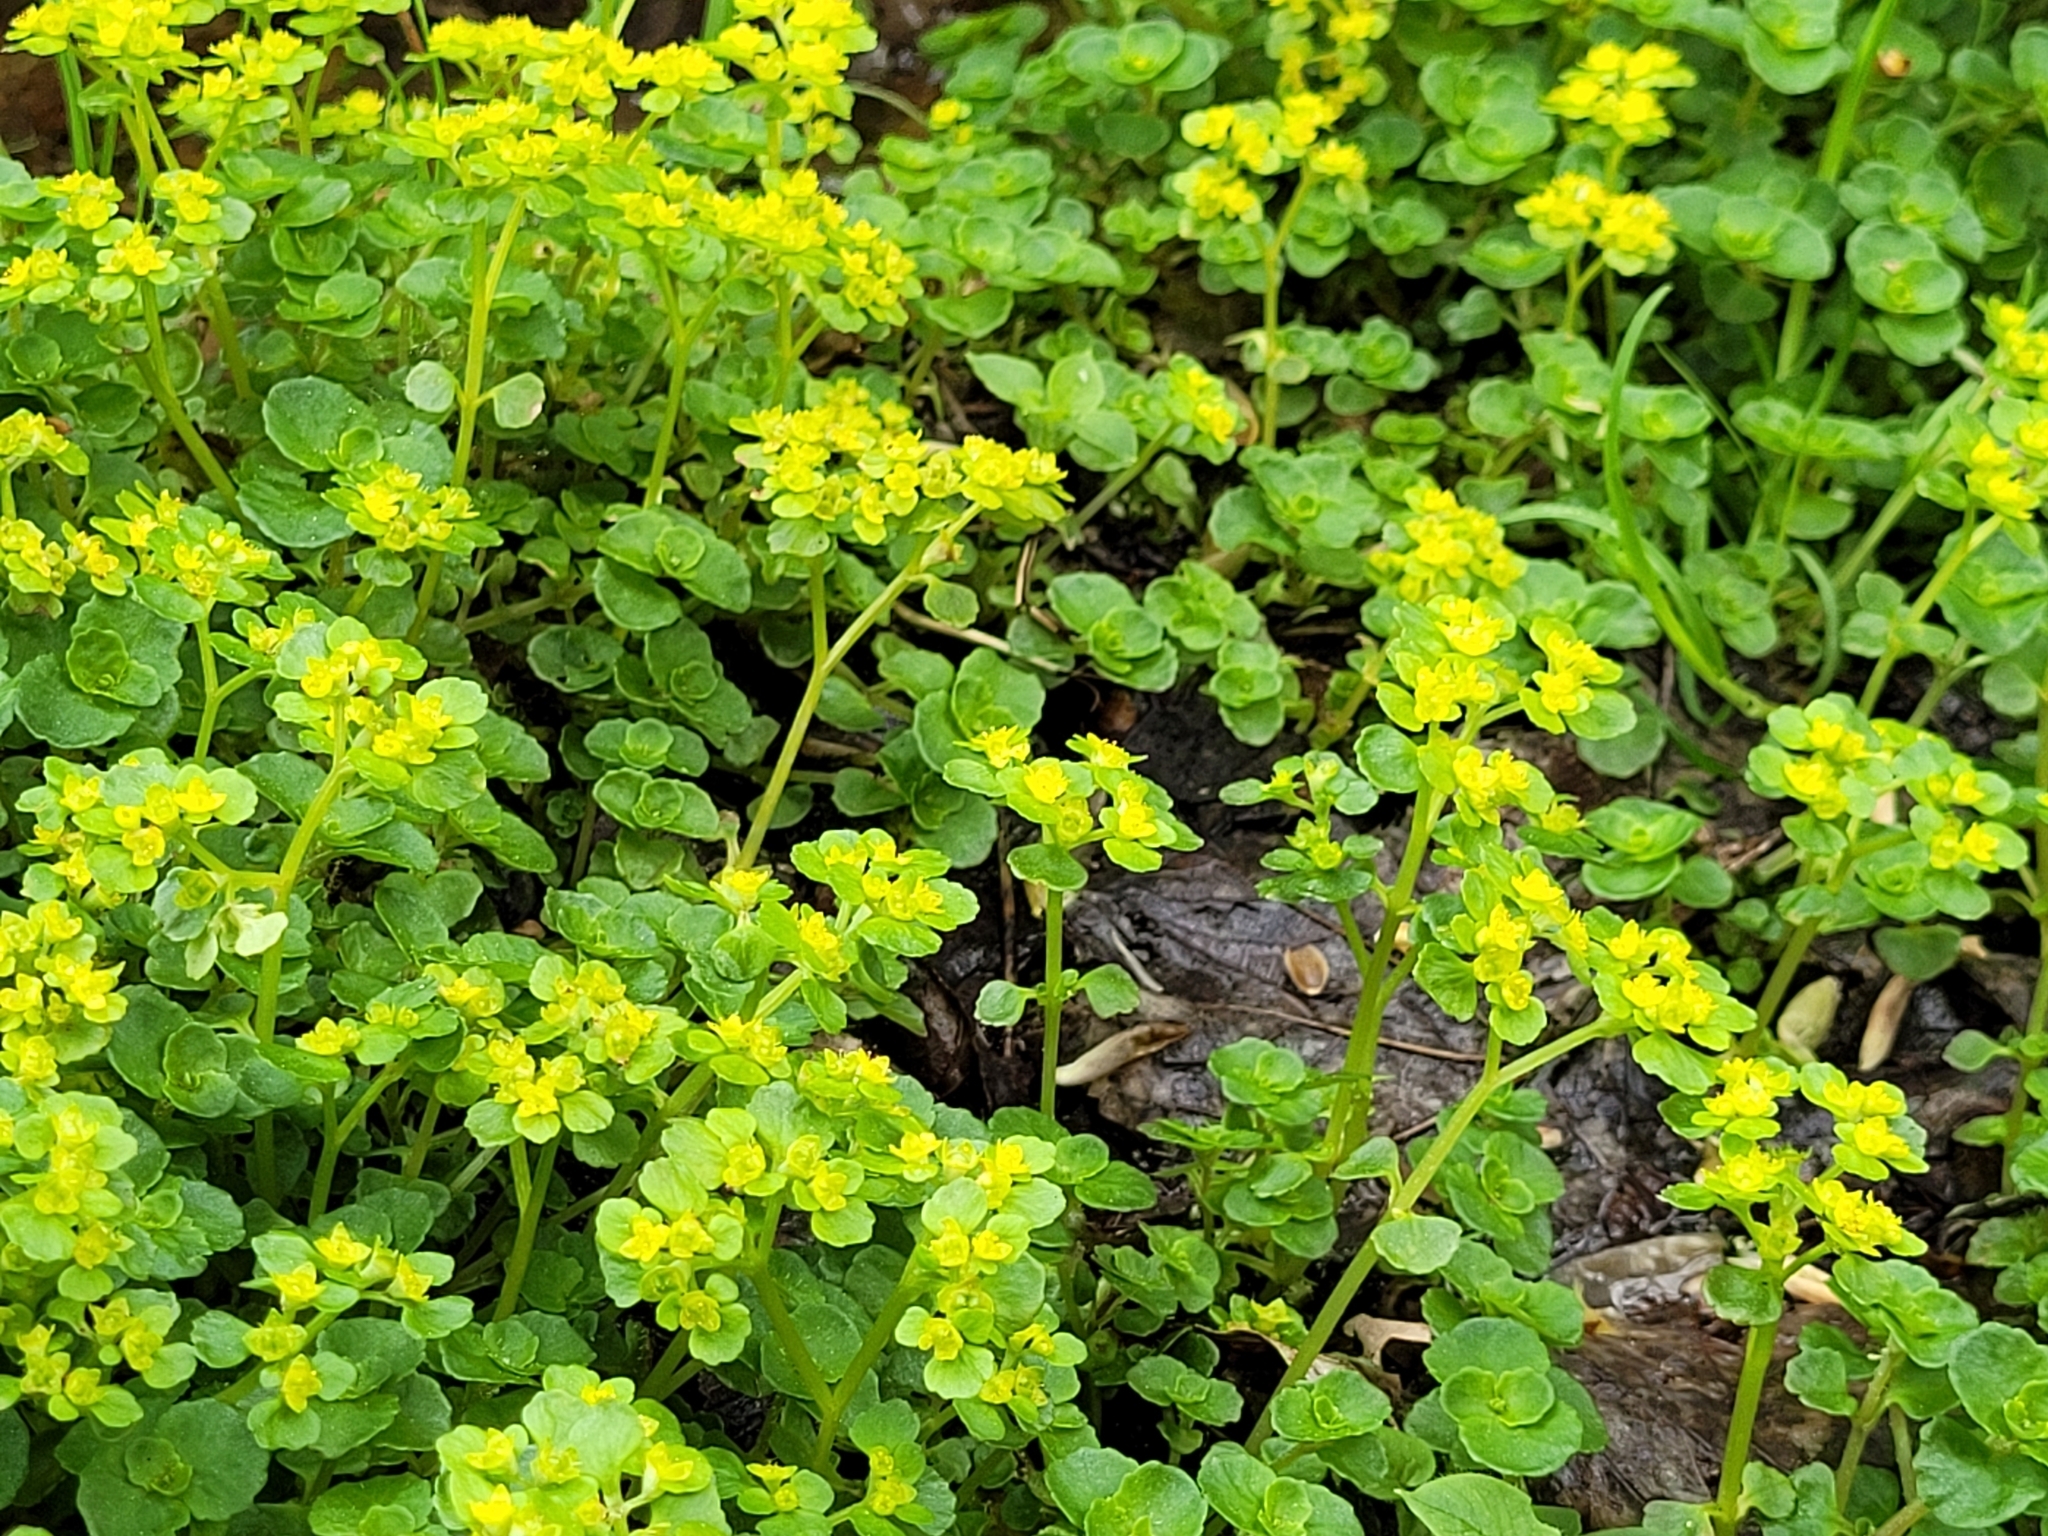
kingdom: Plantae
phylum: Tracheophyta
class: Magnoliopsida
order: Saxifragales
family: Saxifragaceae
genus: Chrysosplenium
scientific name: Chrysosplenium oppositifolium
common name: Opposite-leaved golden-saxifrage
